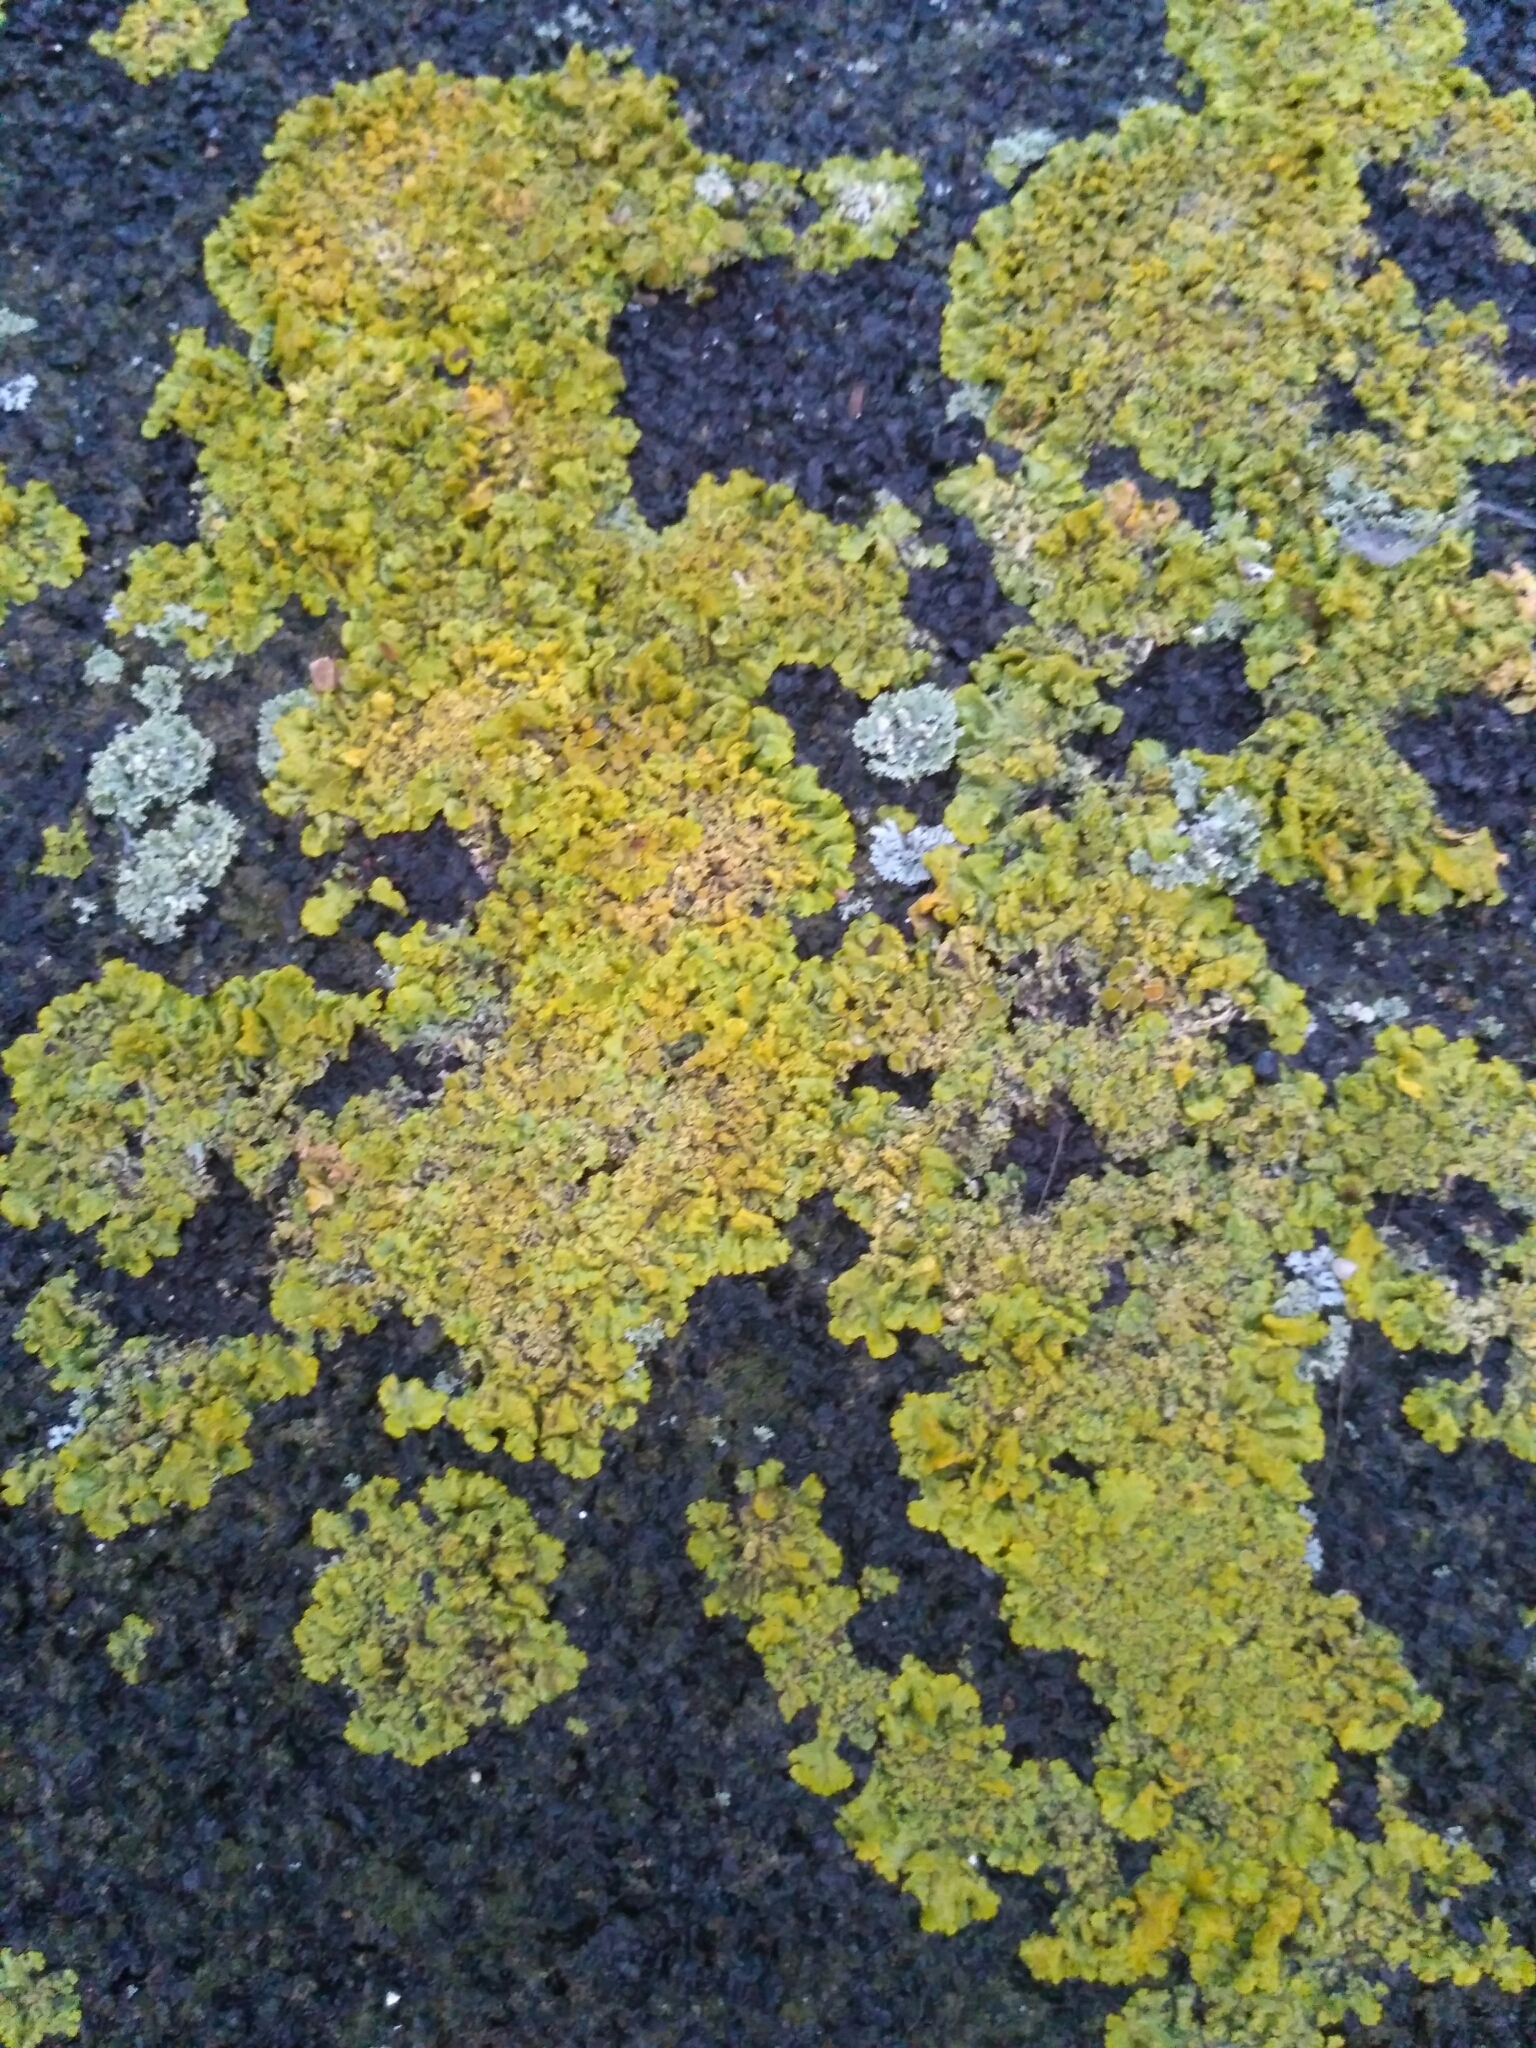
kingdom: Fungi
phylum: Ascomycota
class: Lecanoromycetes
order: Teloschistales
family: Teloschistaceae
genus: Xanthoria
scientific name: Xanthoria parietina
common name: Common orange lichen
